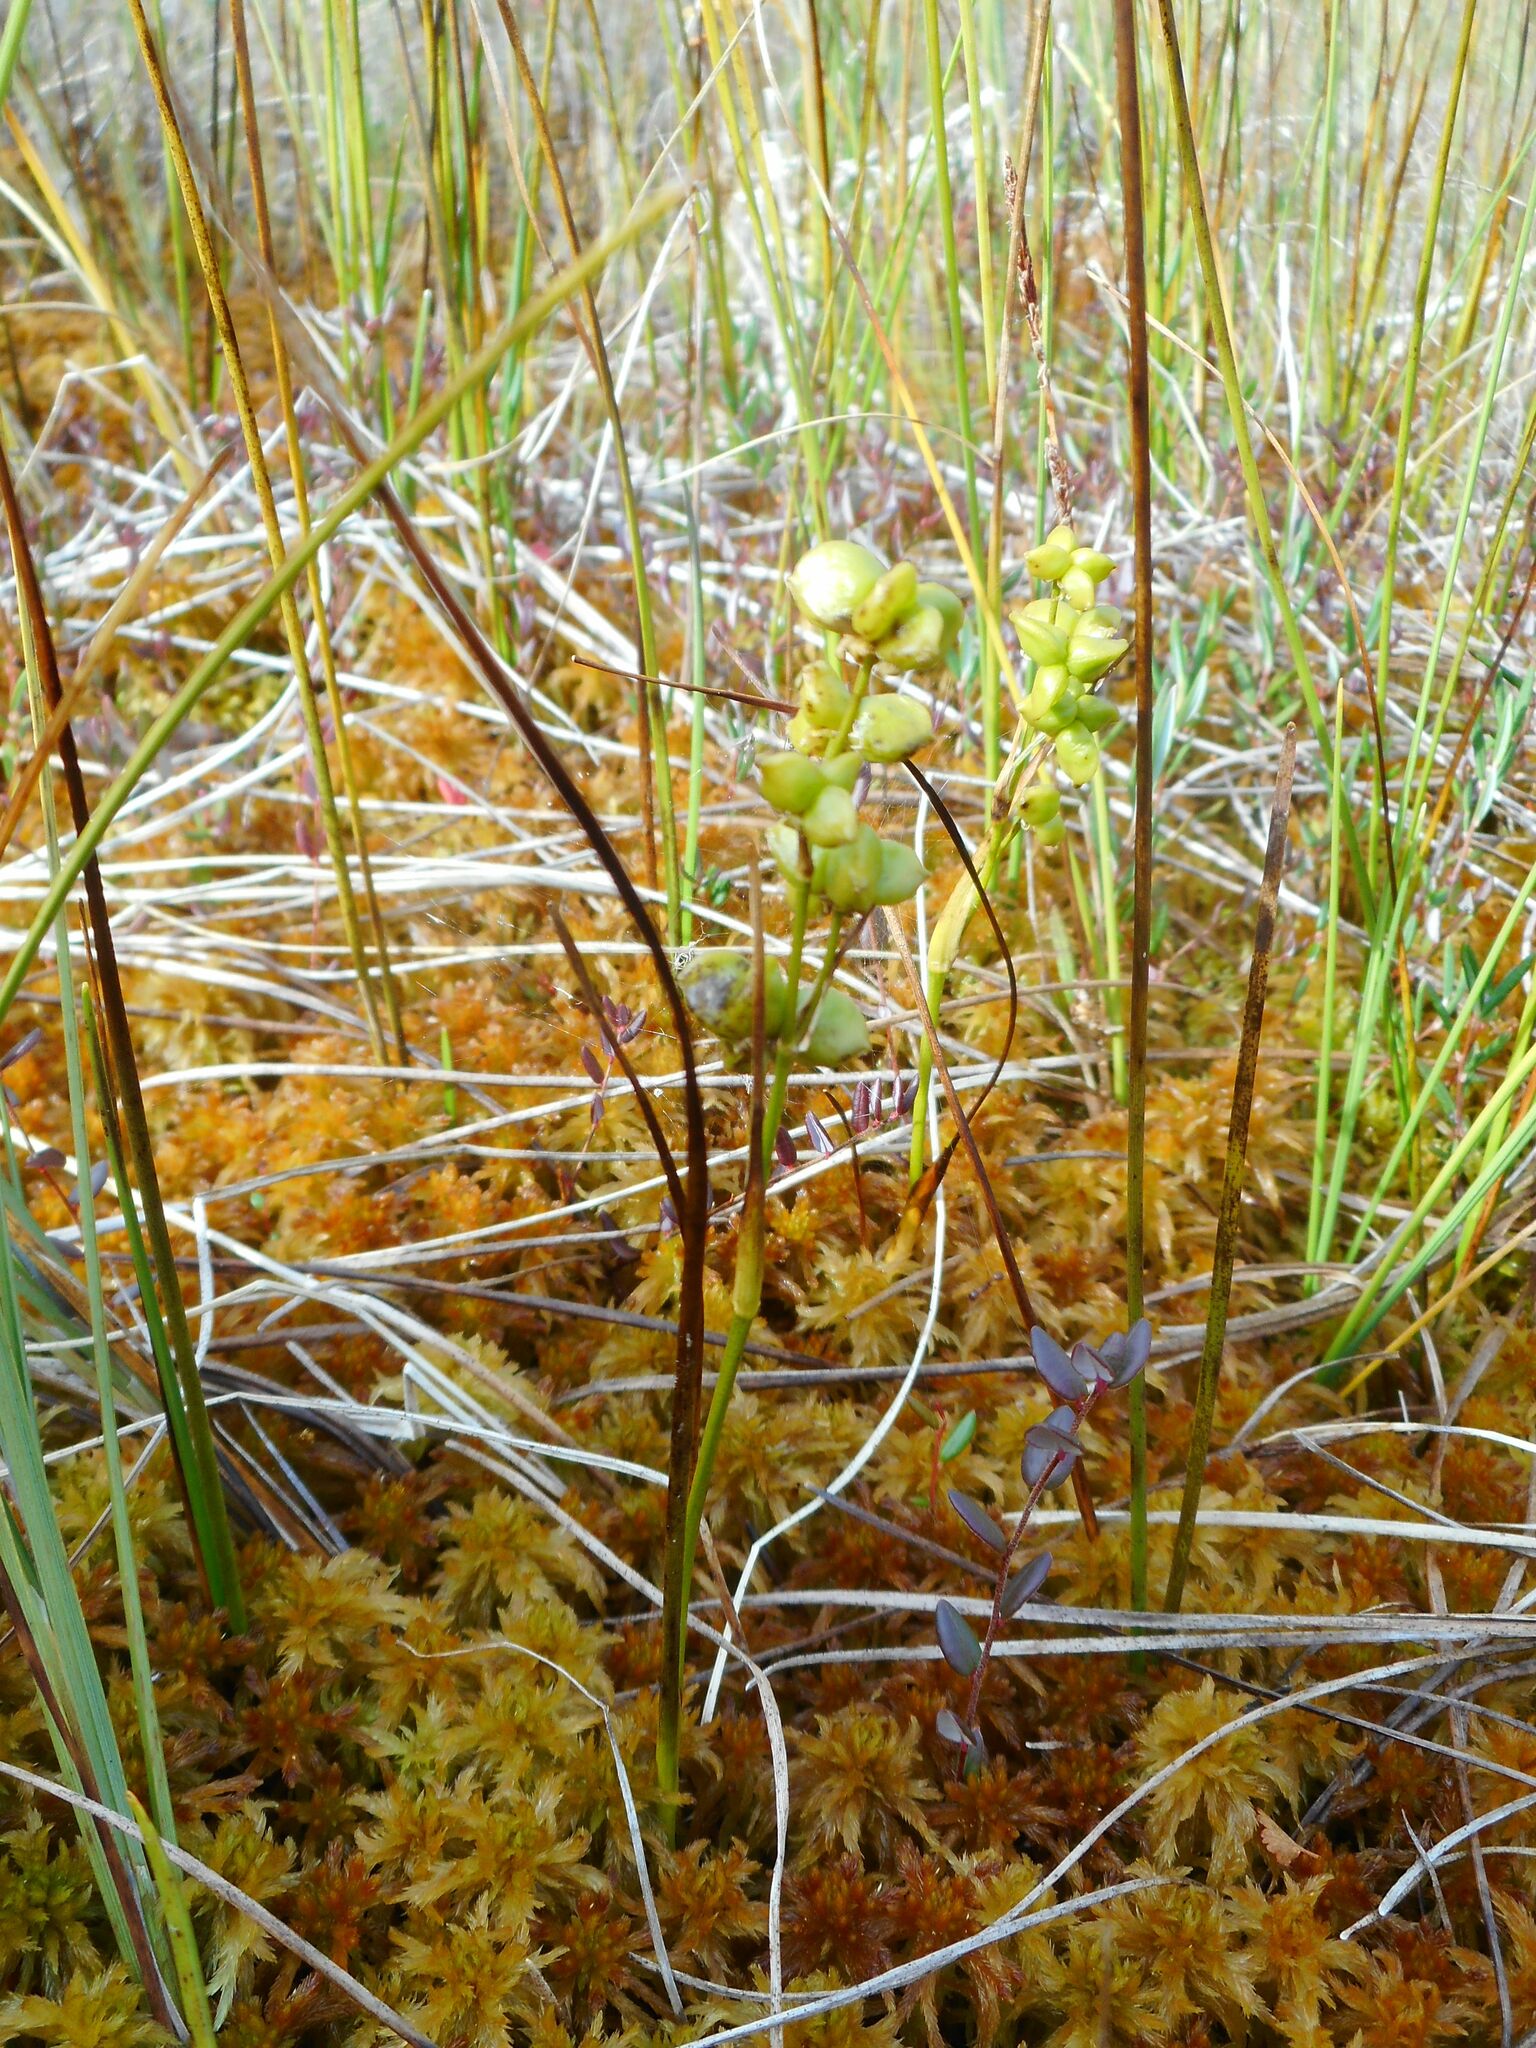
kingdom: Plantae
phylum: Tracheophyta
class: Liliopsida
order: Alismatales
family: Scheuchzeriaceae
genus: Scheuchzeria
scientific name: Scheuchzeria palustris
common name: Rannoch-rush
